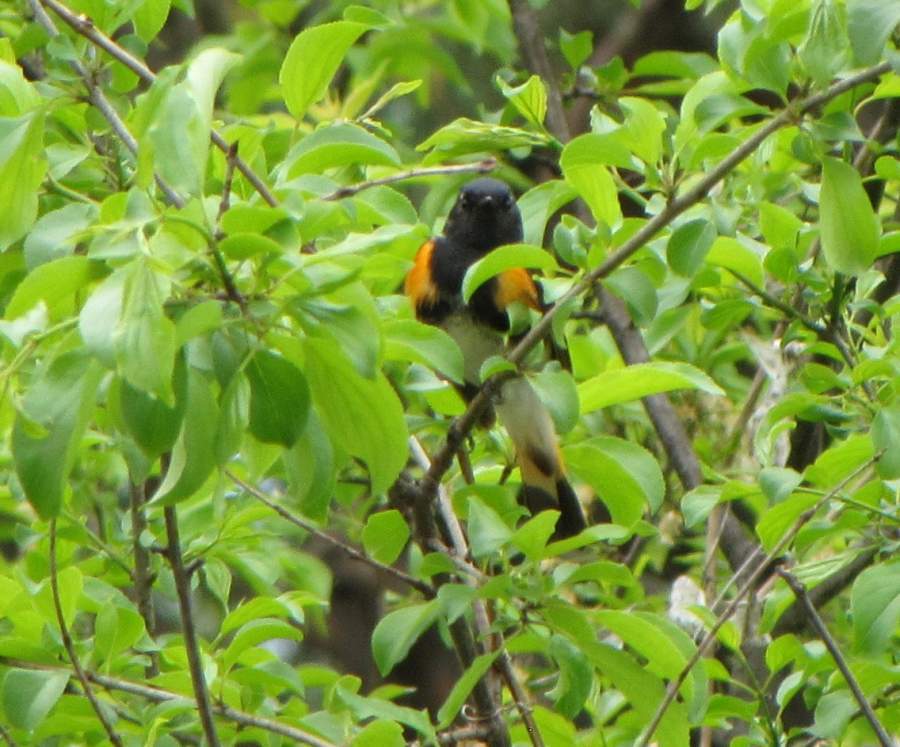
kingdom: Animalia
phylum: Chordata
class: Aves
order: Passeriformes
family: Parulidae
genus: Setophaga
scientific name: Setophaga ruticilla
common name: American redstart
